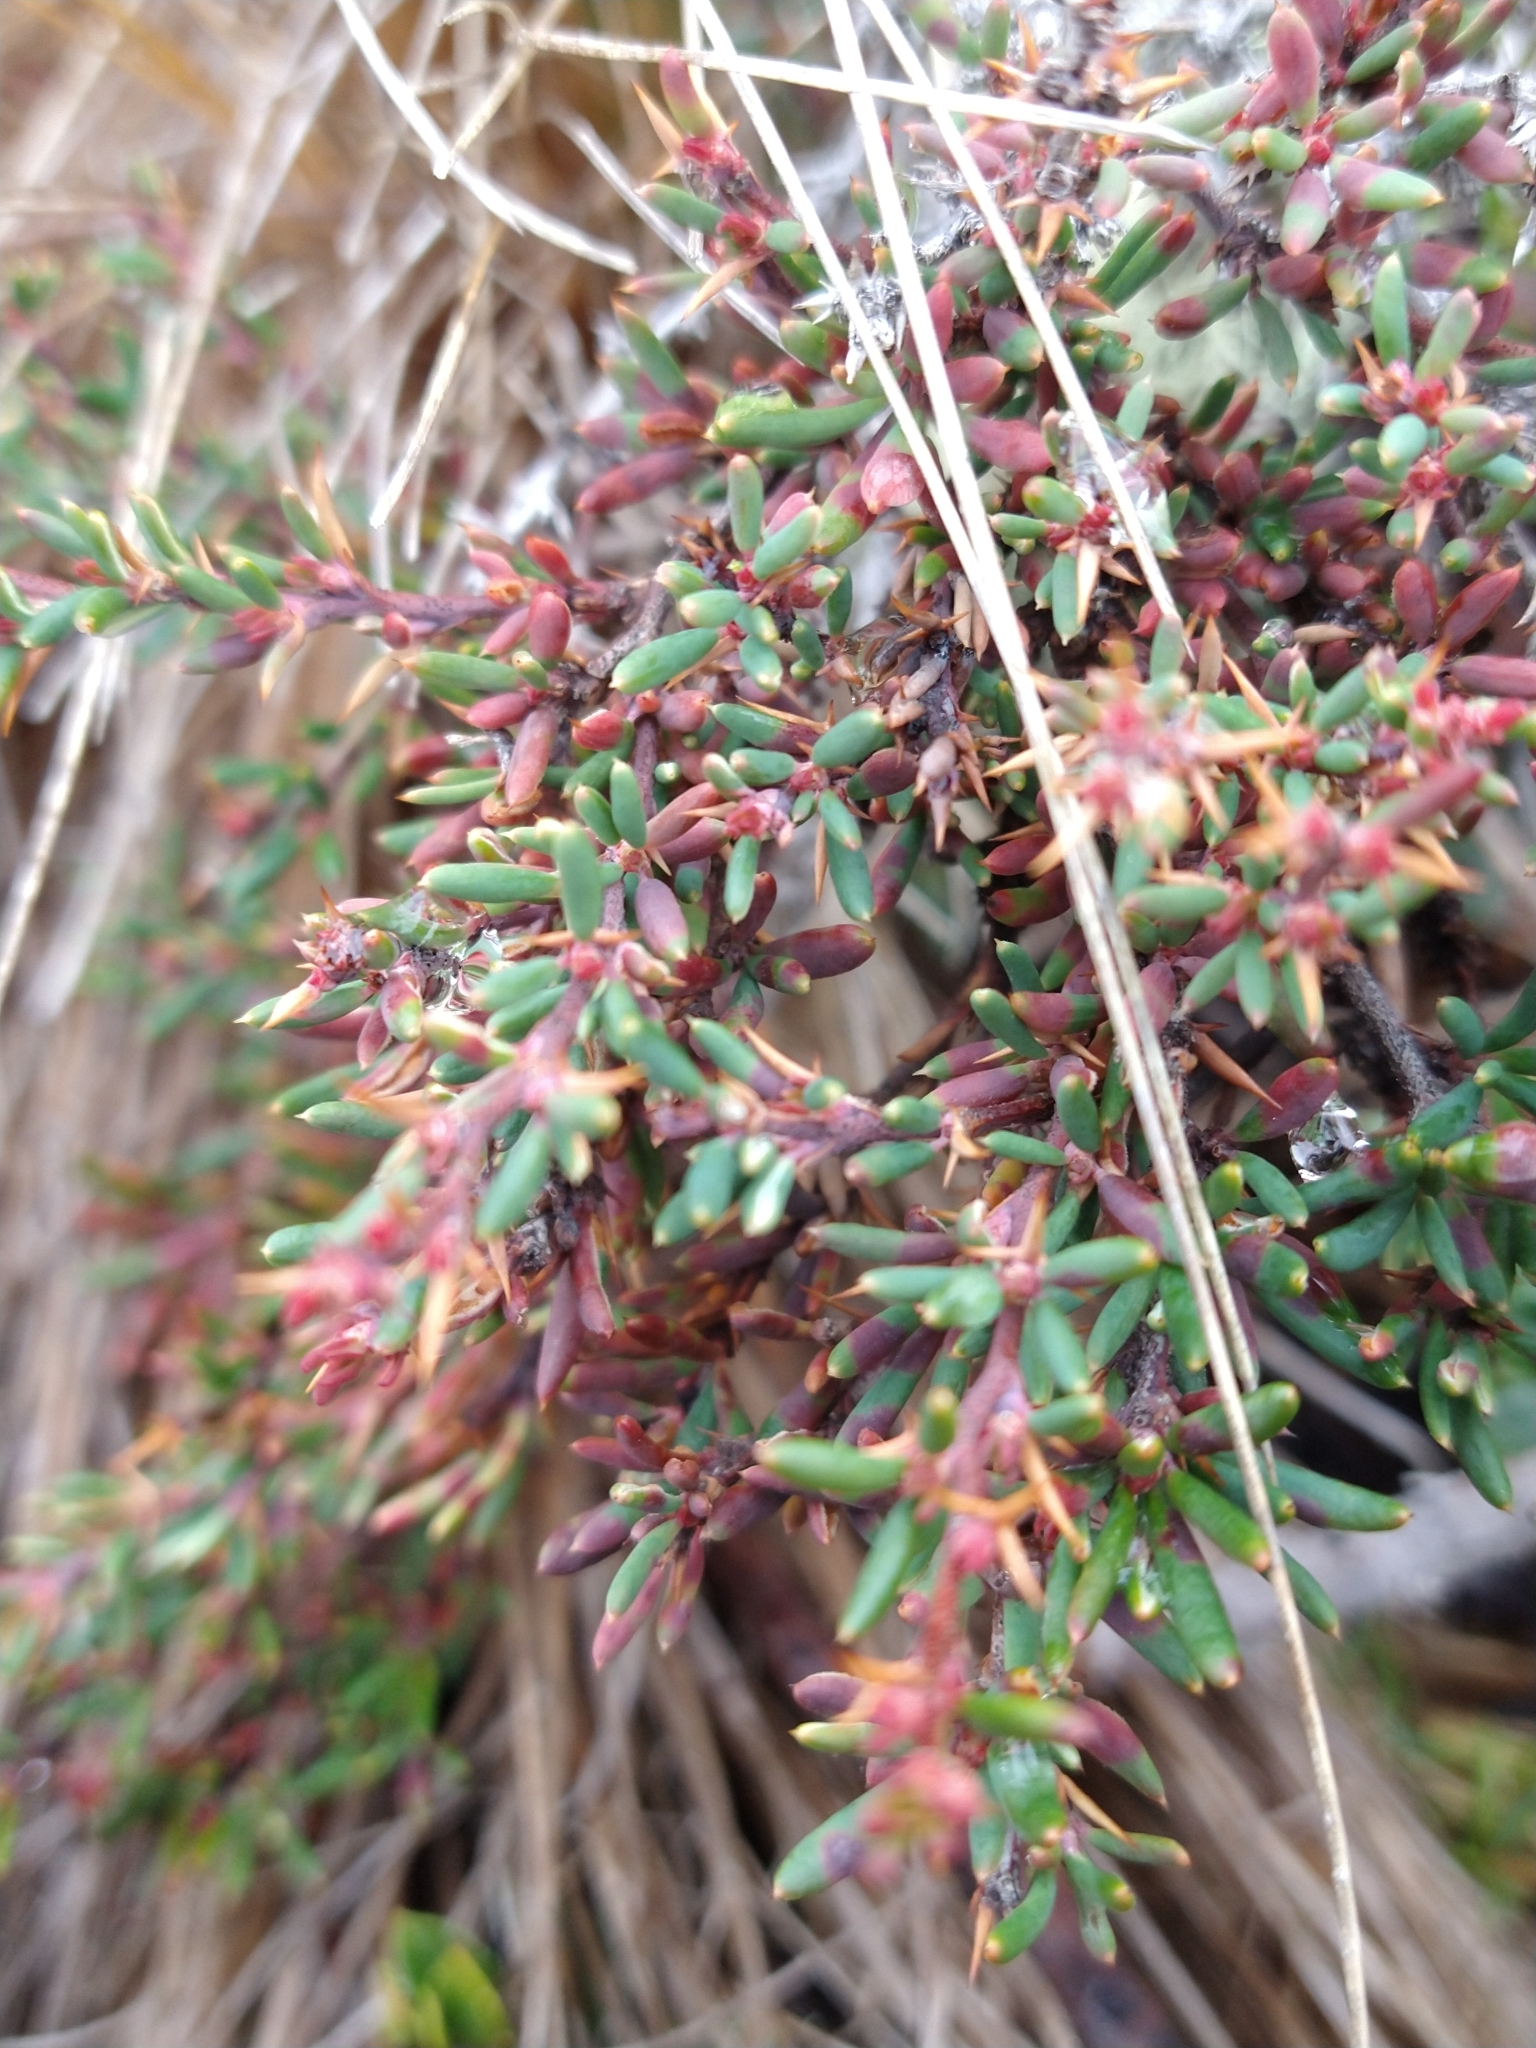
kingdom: Plantae
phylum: Tracheophyta
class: Magnoliopsida
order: Ranunculales
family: Berberidaceae
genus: Berberis
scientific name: Berberis empetrifolia
